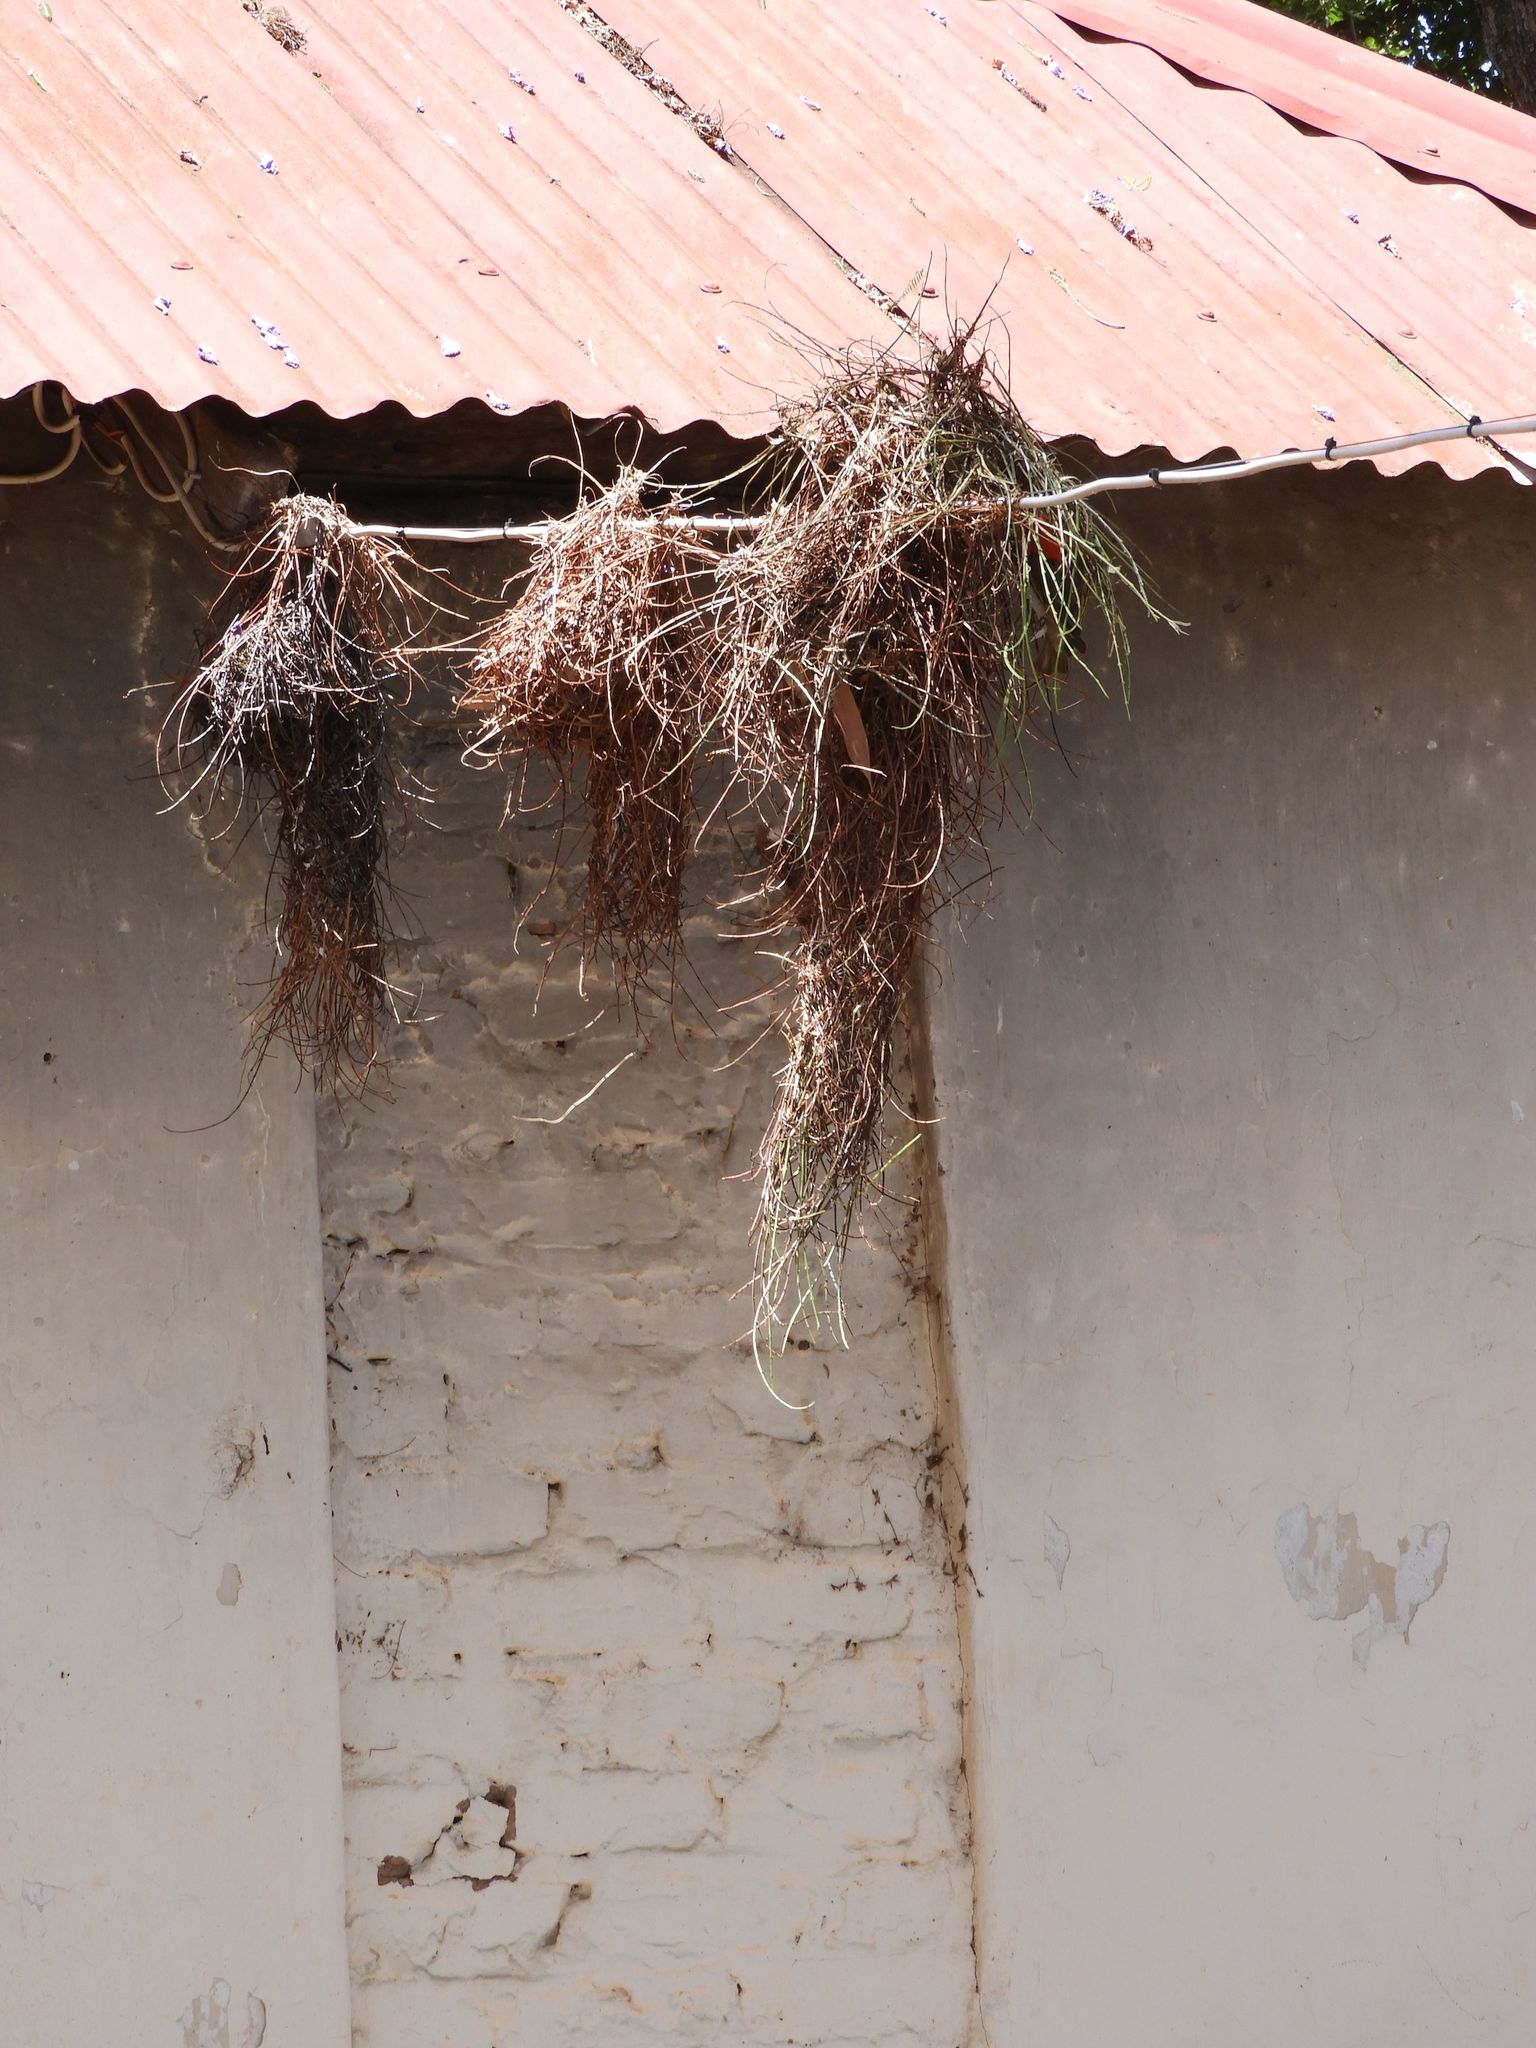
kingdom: Animalia
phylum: Chordata
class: Aves
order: Passeriformes
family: Ploceidae
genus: Anaplectes
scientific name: Anaplectes rubriceps
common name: Red-headed weaver
